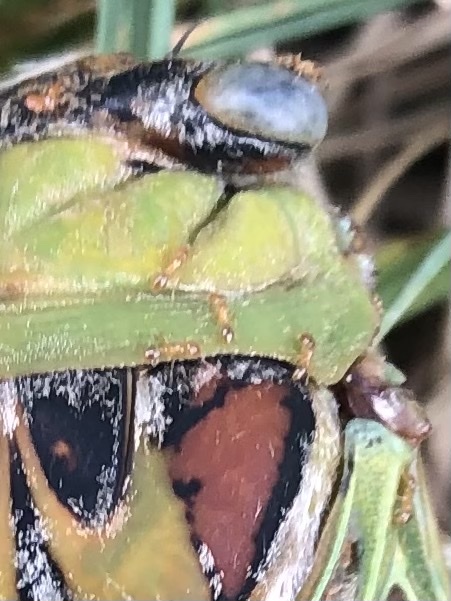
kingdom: Animalia
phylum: Arthropoda
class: Insecta
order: Hymenoptera
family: Formicidae
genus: Solenopsis
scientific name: Solenopsis molesta
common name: Thief ant
